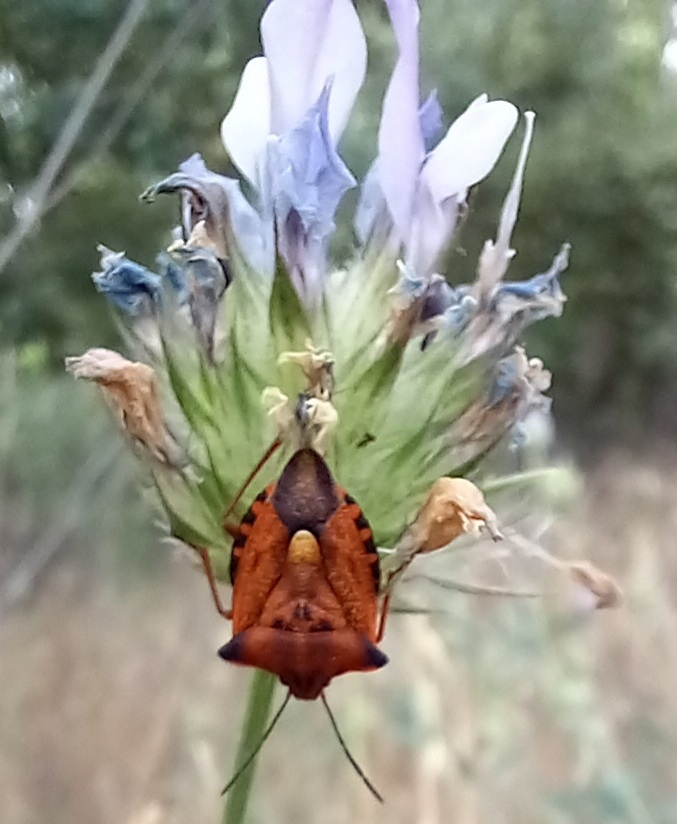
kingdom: Animalia
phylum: Arthropoda
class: Insecta
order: Hemiptera
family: Pentatomidae
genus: Carpocoris
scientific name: Carpocoris mediterraneus
